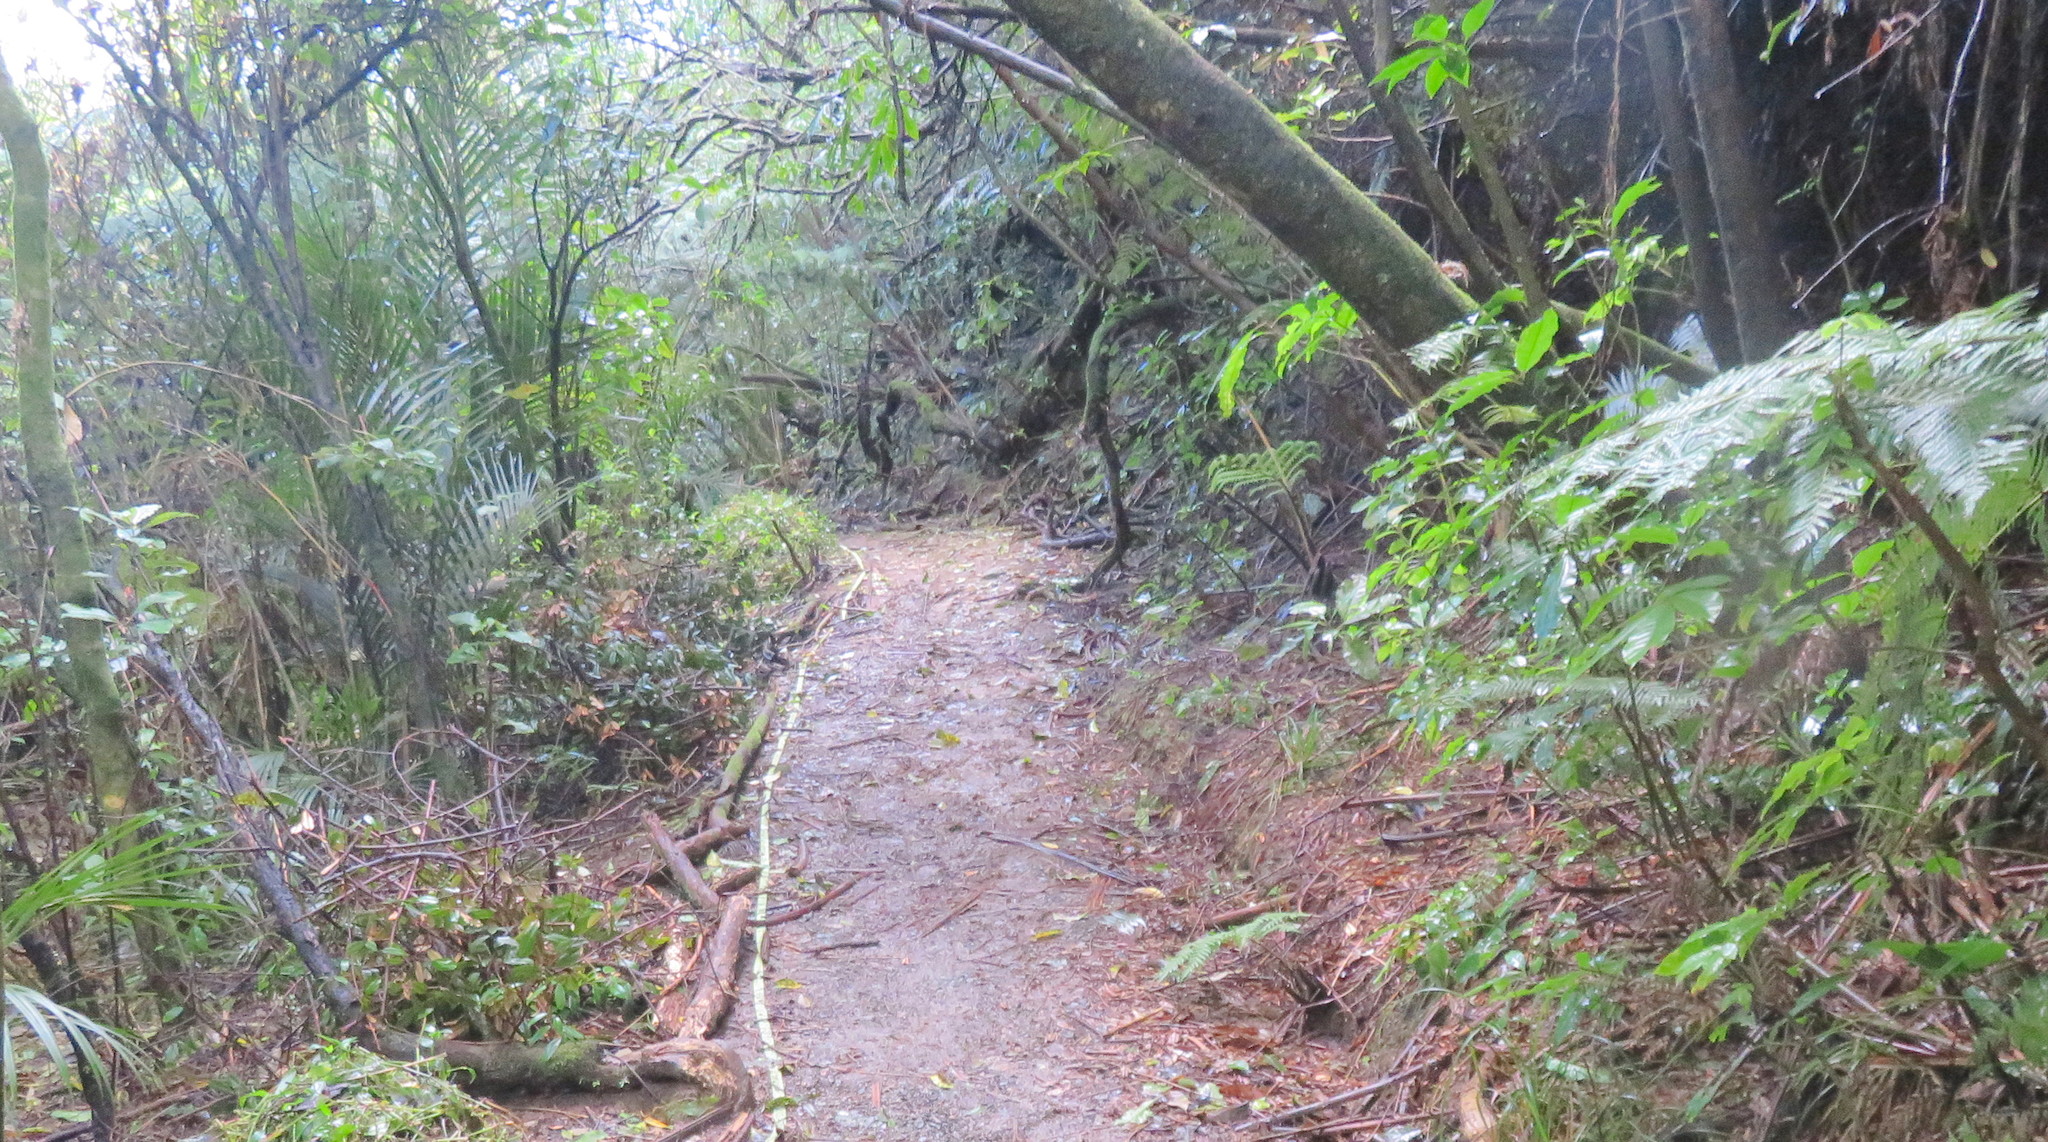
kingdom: Plantae
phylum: Tracheophyta
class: Magnoliopsida
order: Apiales
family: Araliaceae
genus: Schefflera
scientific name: Schefflera digitata
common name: Pate
